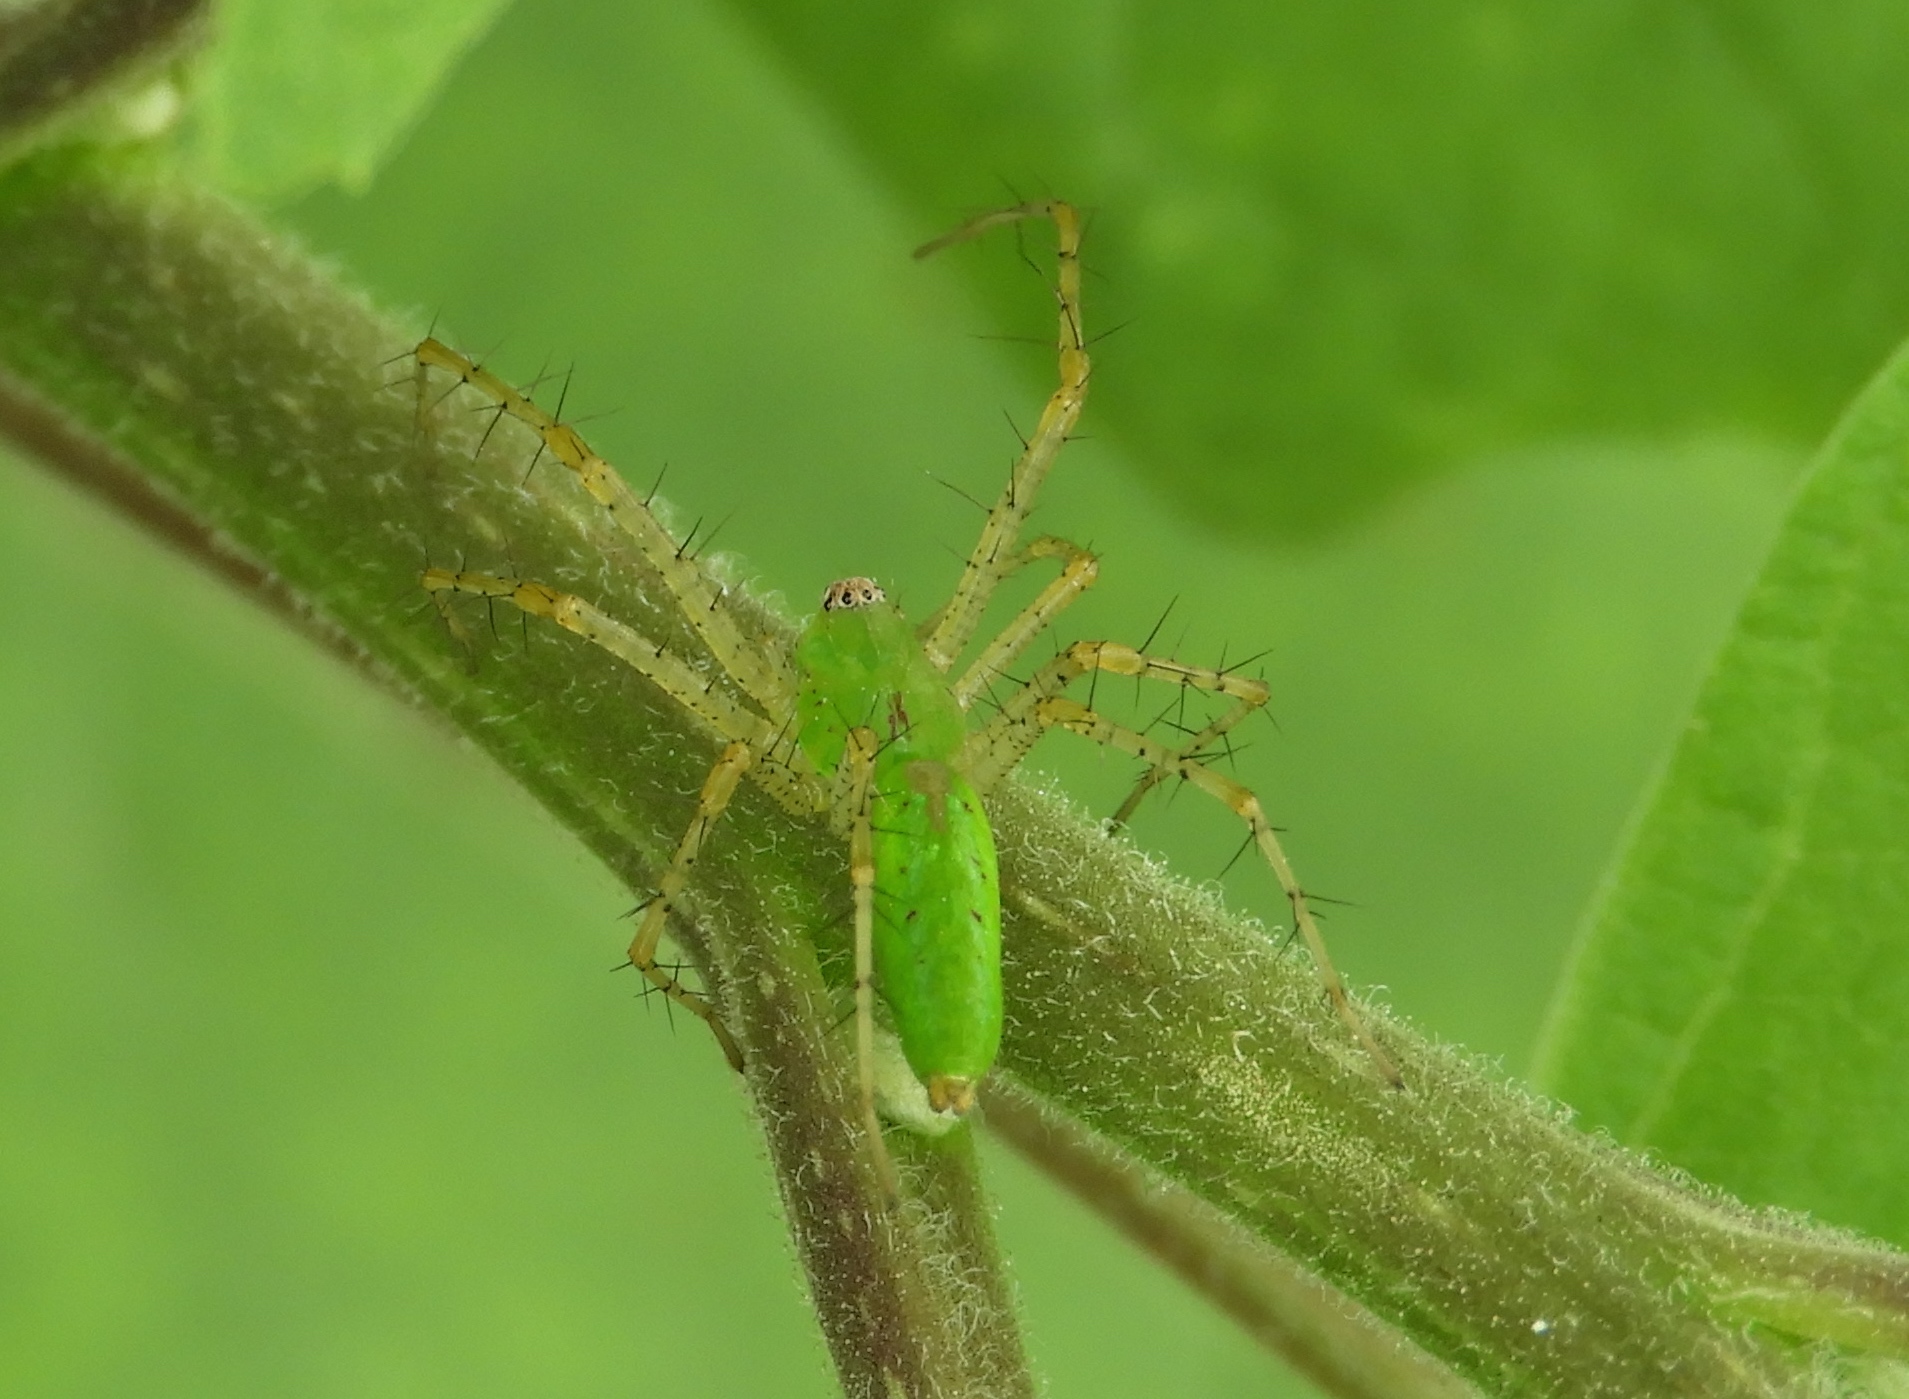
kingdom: Animalia
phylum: Arthropoda
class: Arachnida
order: Araneae
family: Oxyopidae
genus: Peucetia
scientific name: Peucetia
